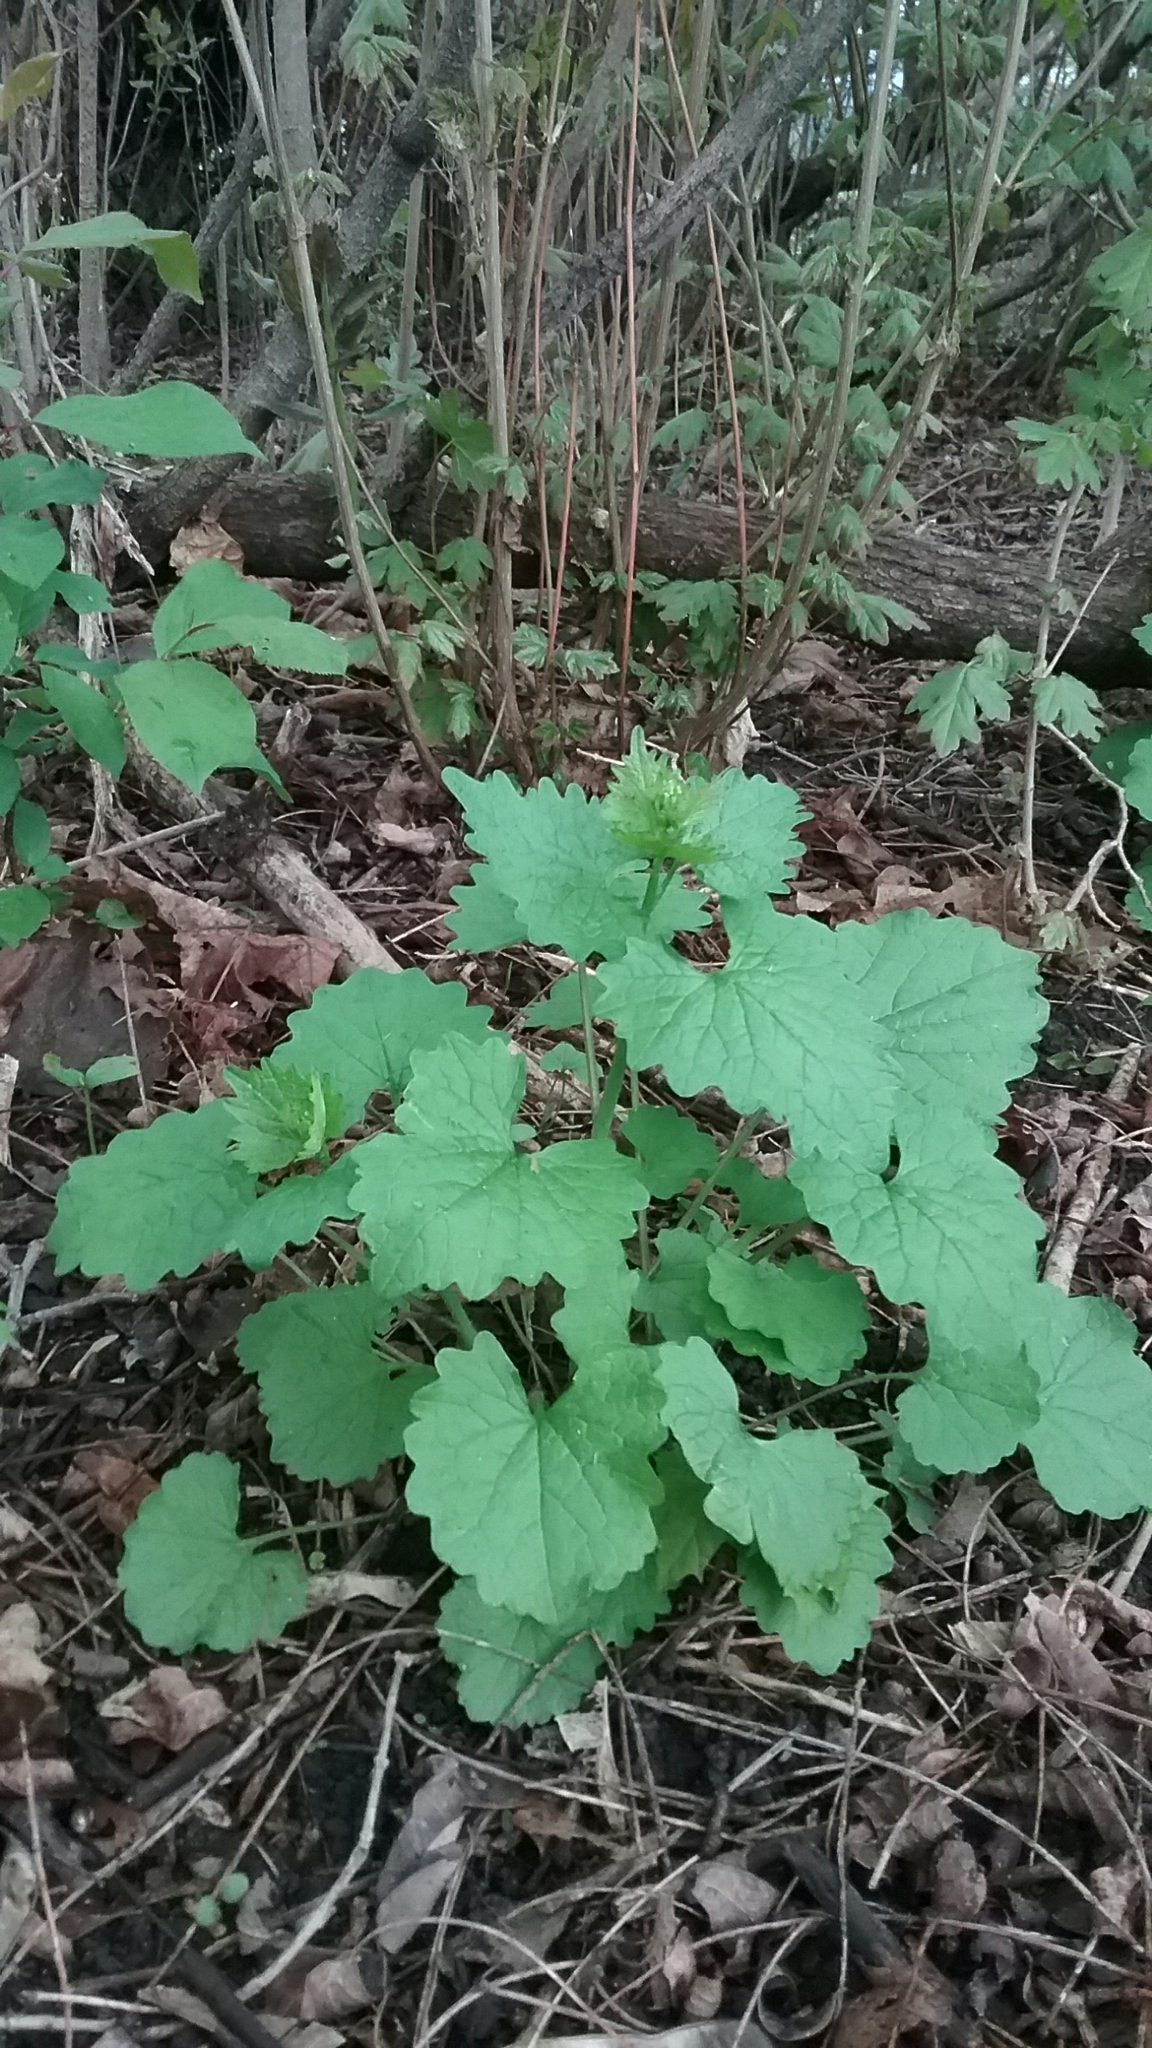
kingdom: Plantae
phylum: Tracheophyta
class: Magnoliopsida
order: Brassicales
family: Brassicaceae
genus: Alliaria
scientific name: Alliaria petiolata
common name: Garlic mustard
